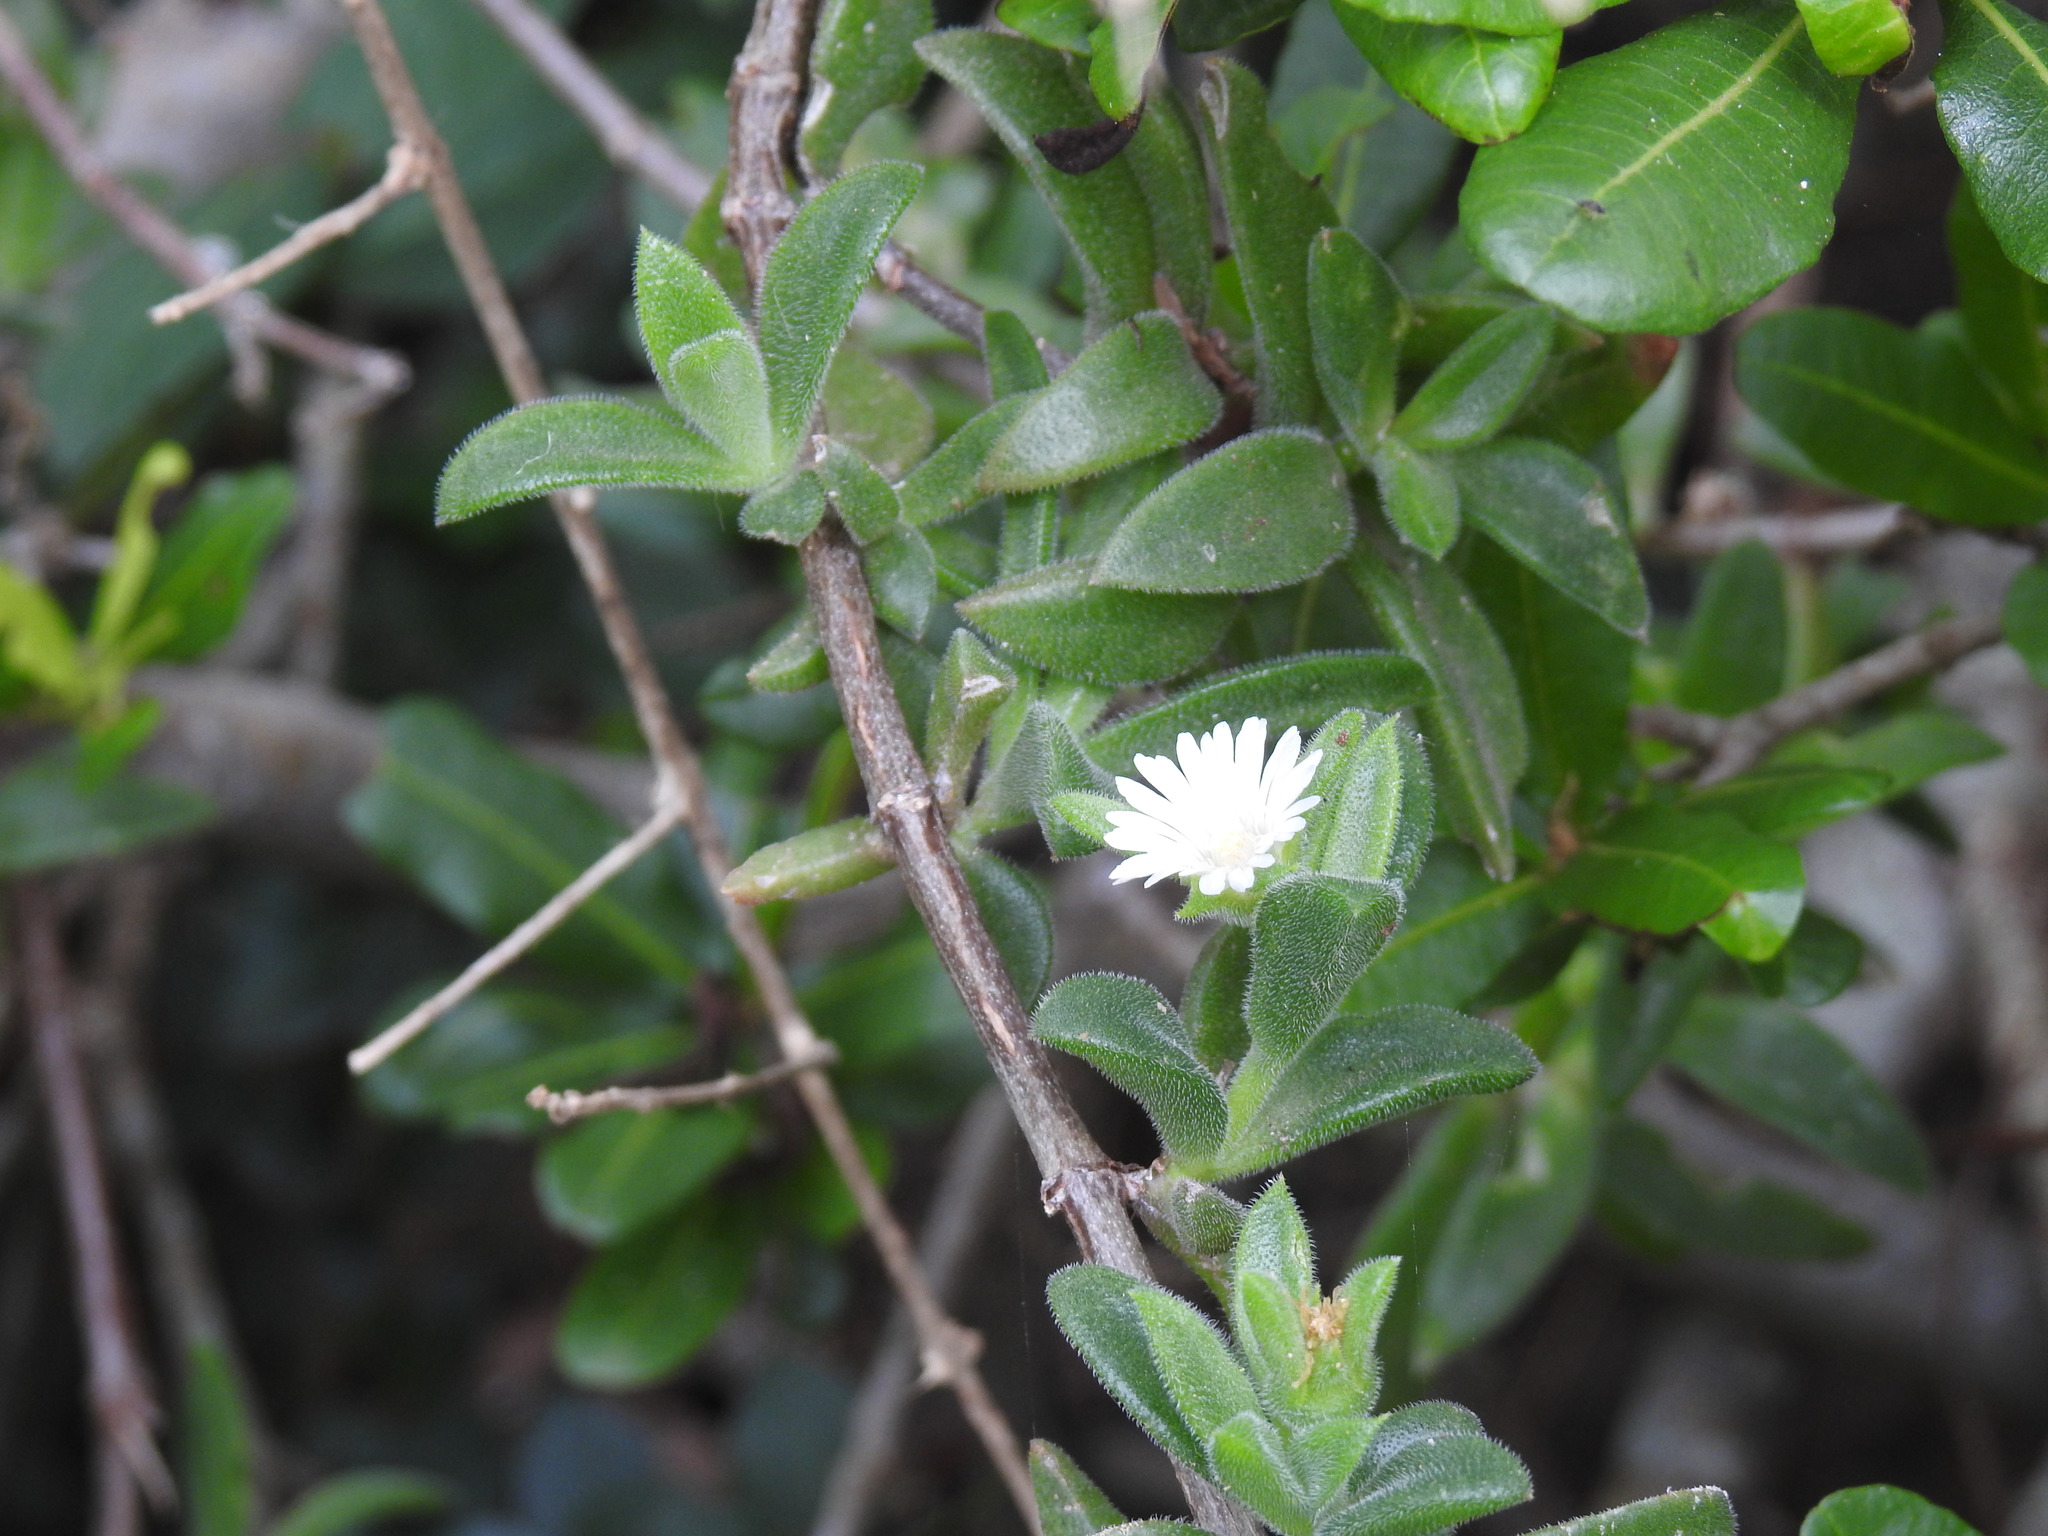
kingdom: Plantae
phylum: Tracheophyta
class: Magnoliopsida
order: Caryophyllales
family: Aizoaceae
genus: Delosperma
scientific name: Delosperma invalidum
